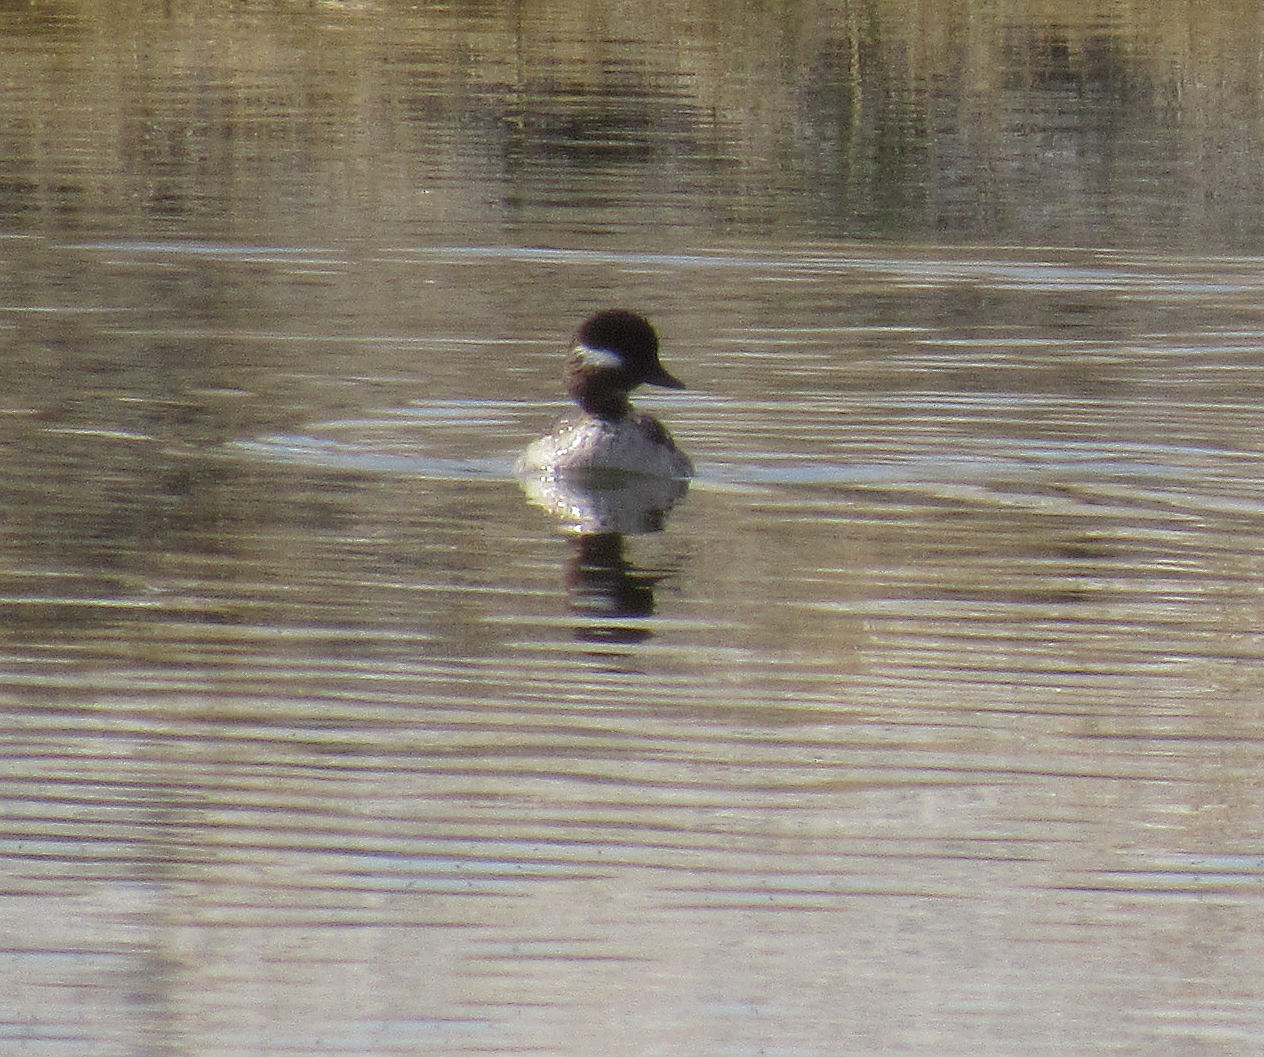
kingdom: Animalia
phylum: Chordata
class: Aves
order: Anseriformes
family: Anatidae
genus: Bucephala
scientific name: Bucephala albeola
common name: Bufflehead
